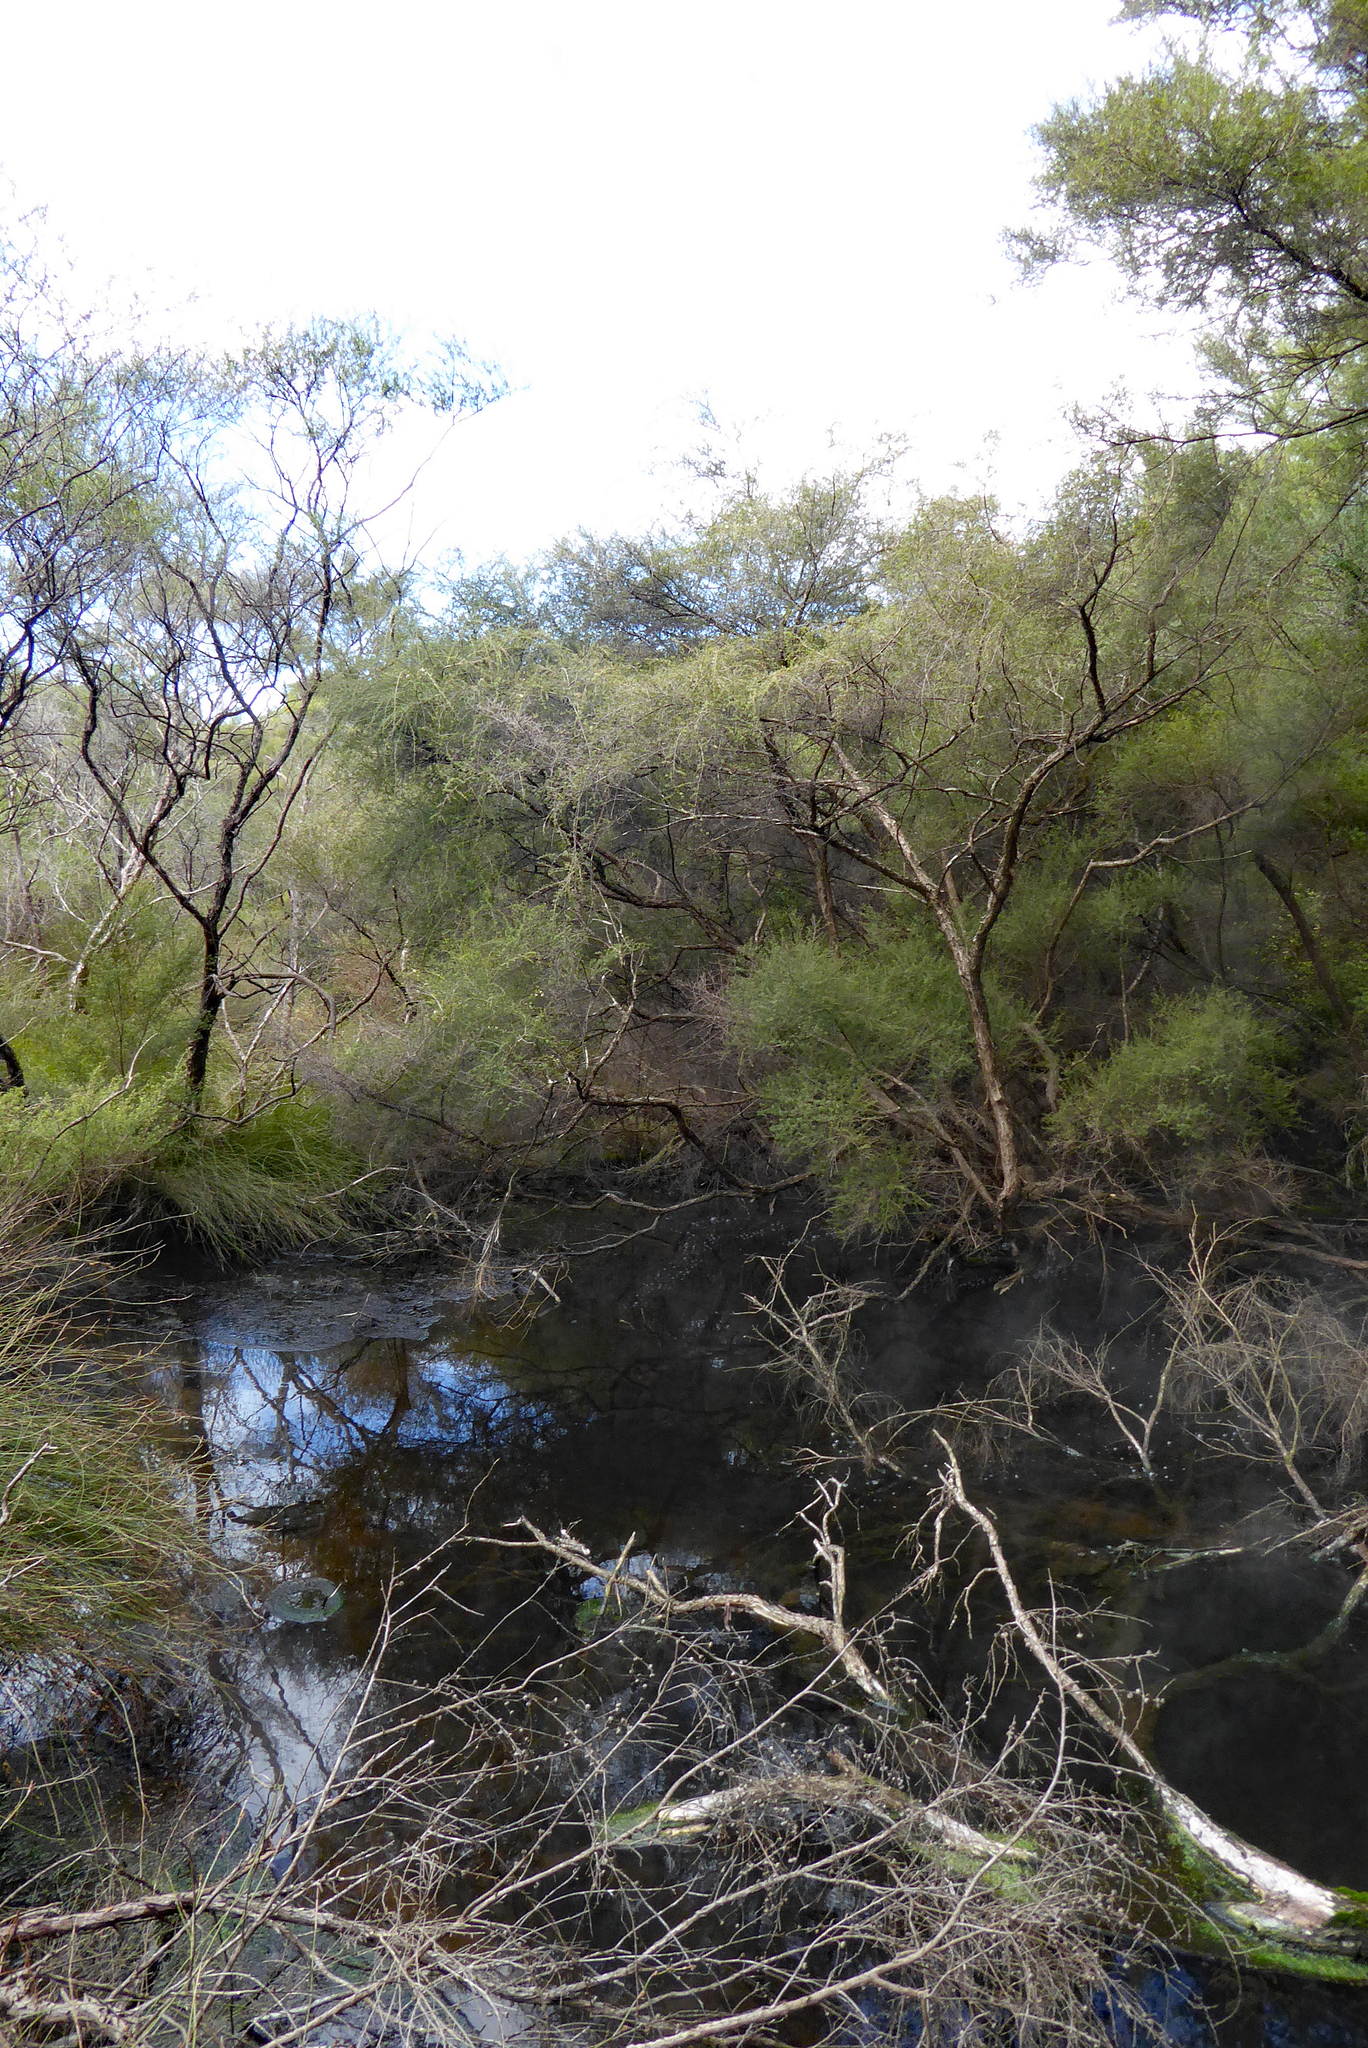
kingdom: Plantae
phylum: Tracheophyta
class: Magnoliopsida
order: Myrtales
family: Myrtaceae
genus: Kunzea
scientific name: Kunzea tenuicaulis
